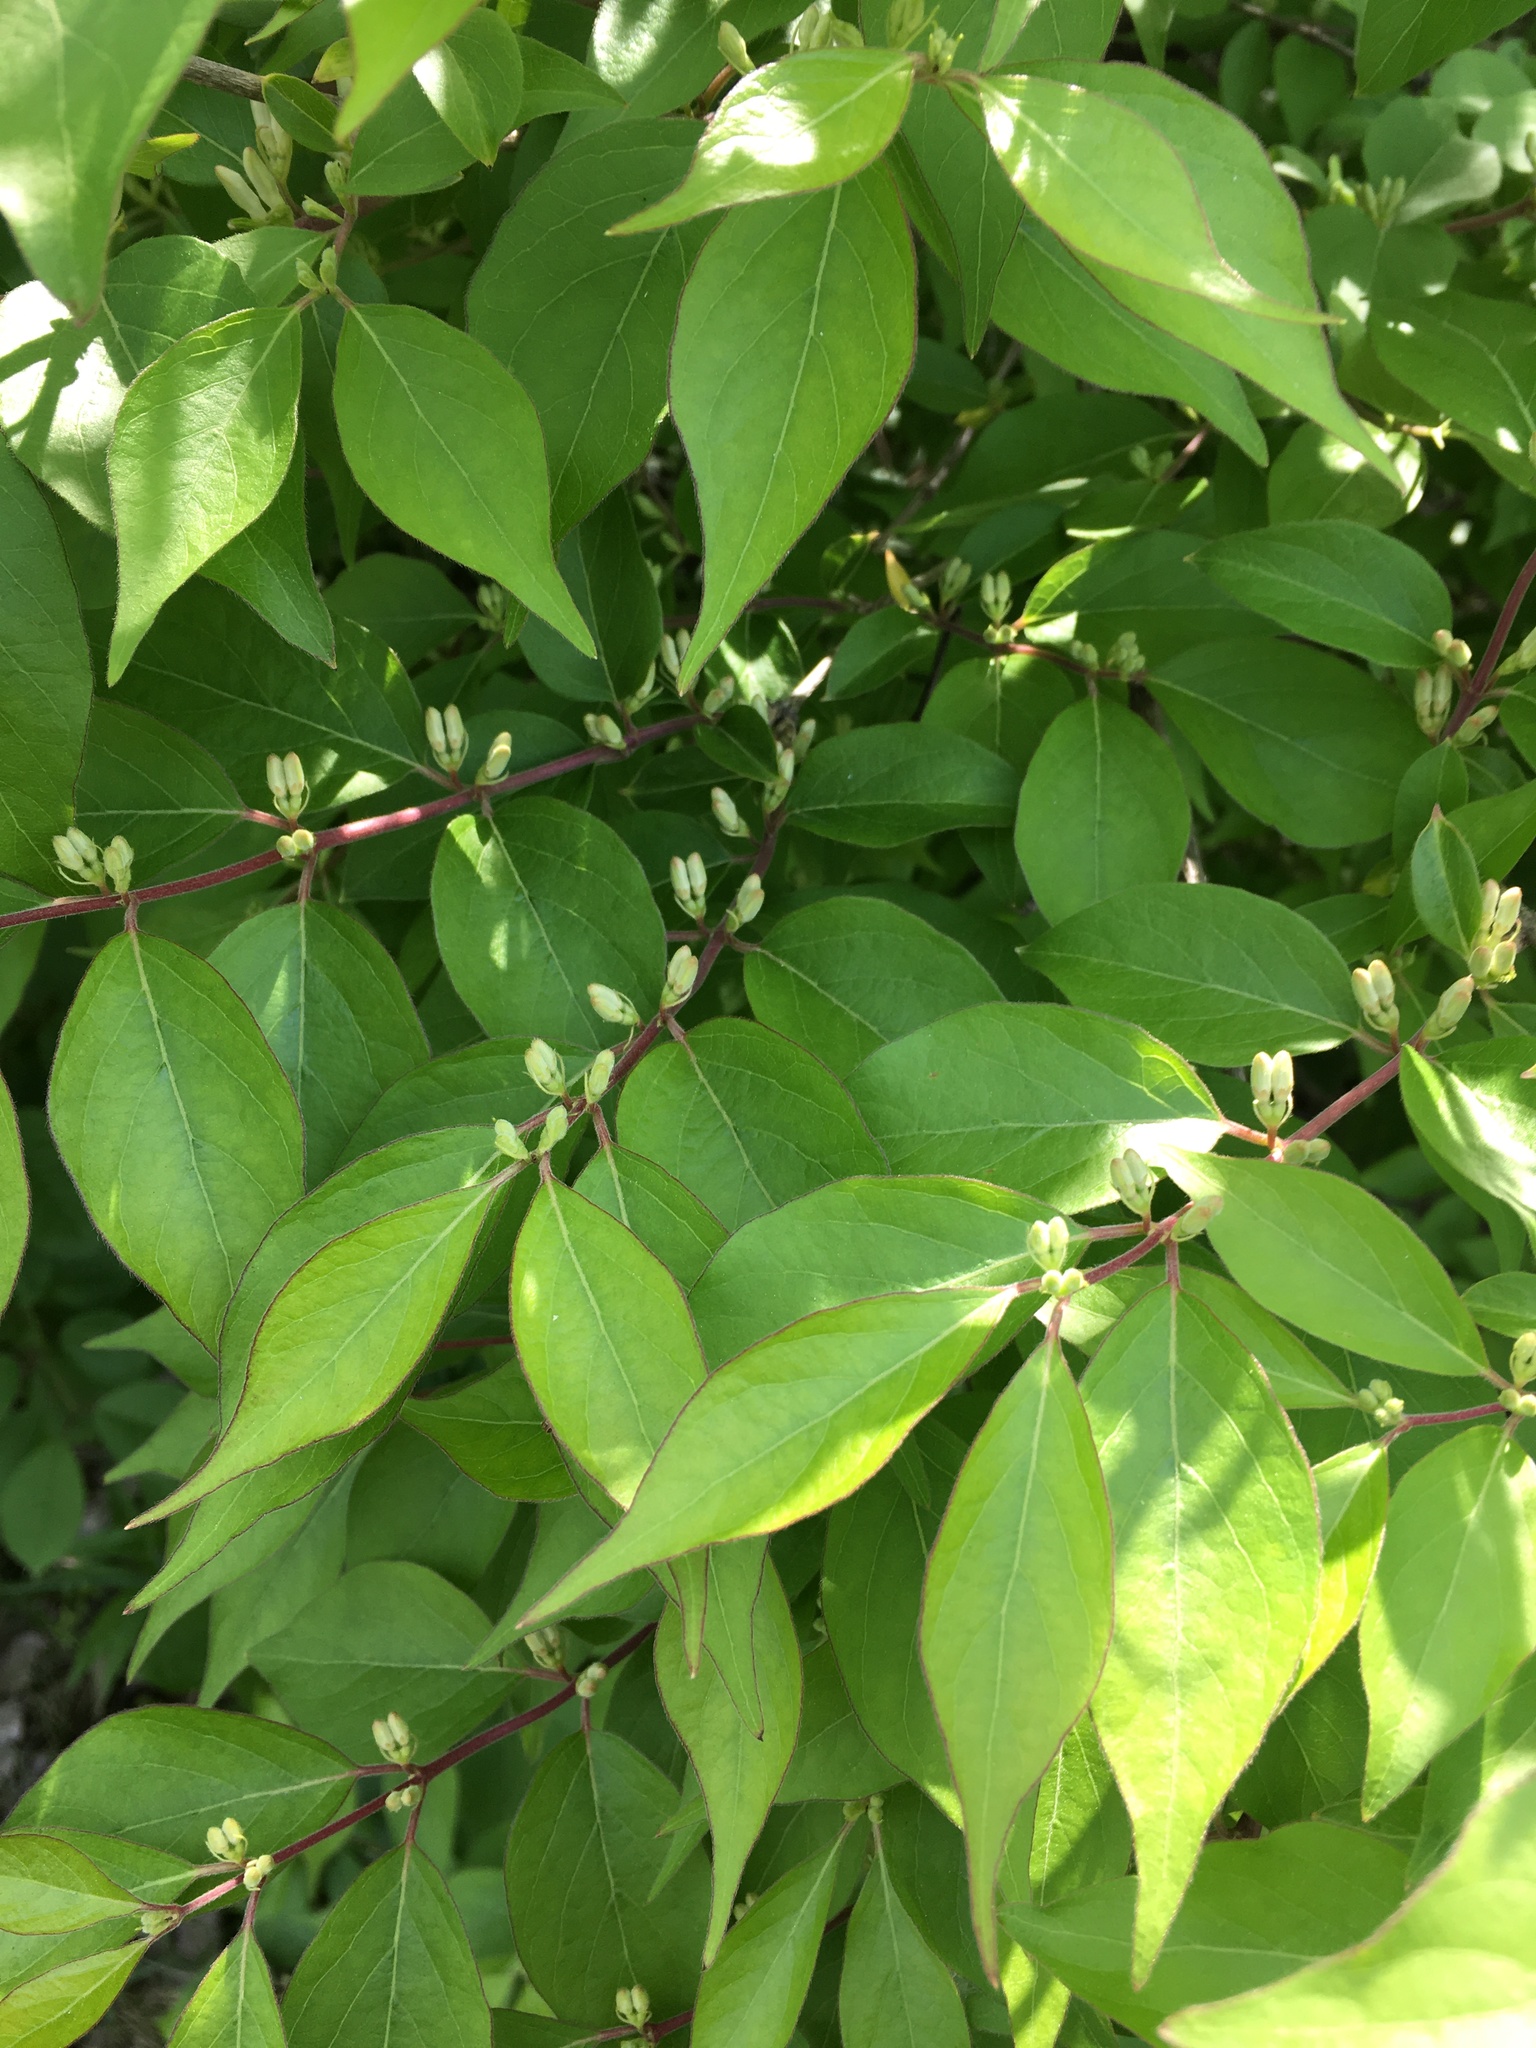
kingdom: Plantae
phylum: Tracheophyta
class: Magnoliopsida
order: Dipsacales
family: Caprifoliaceae
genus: Lonicera
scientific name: Lonicera maackii
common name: Amur honeysuckle
